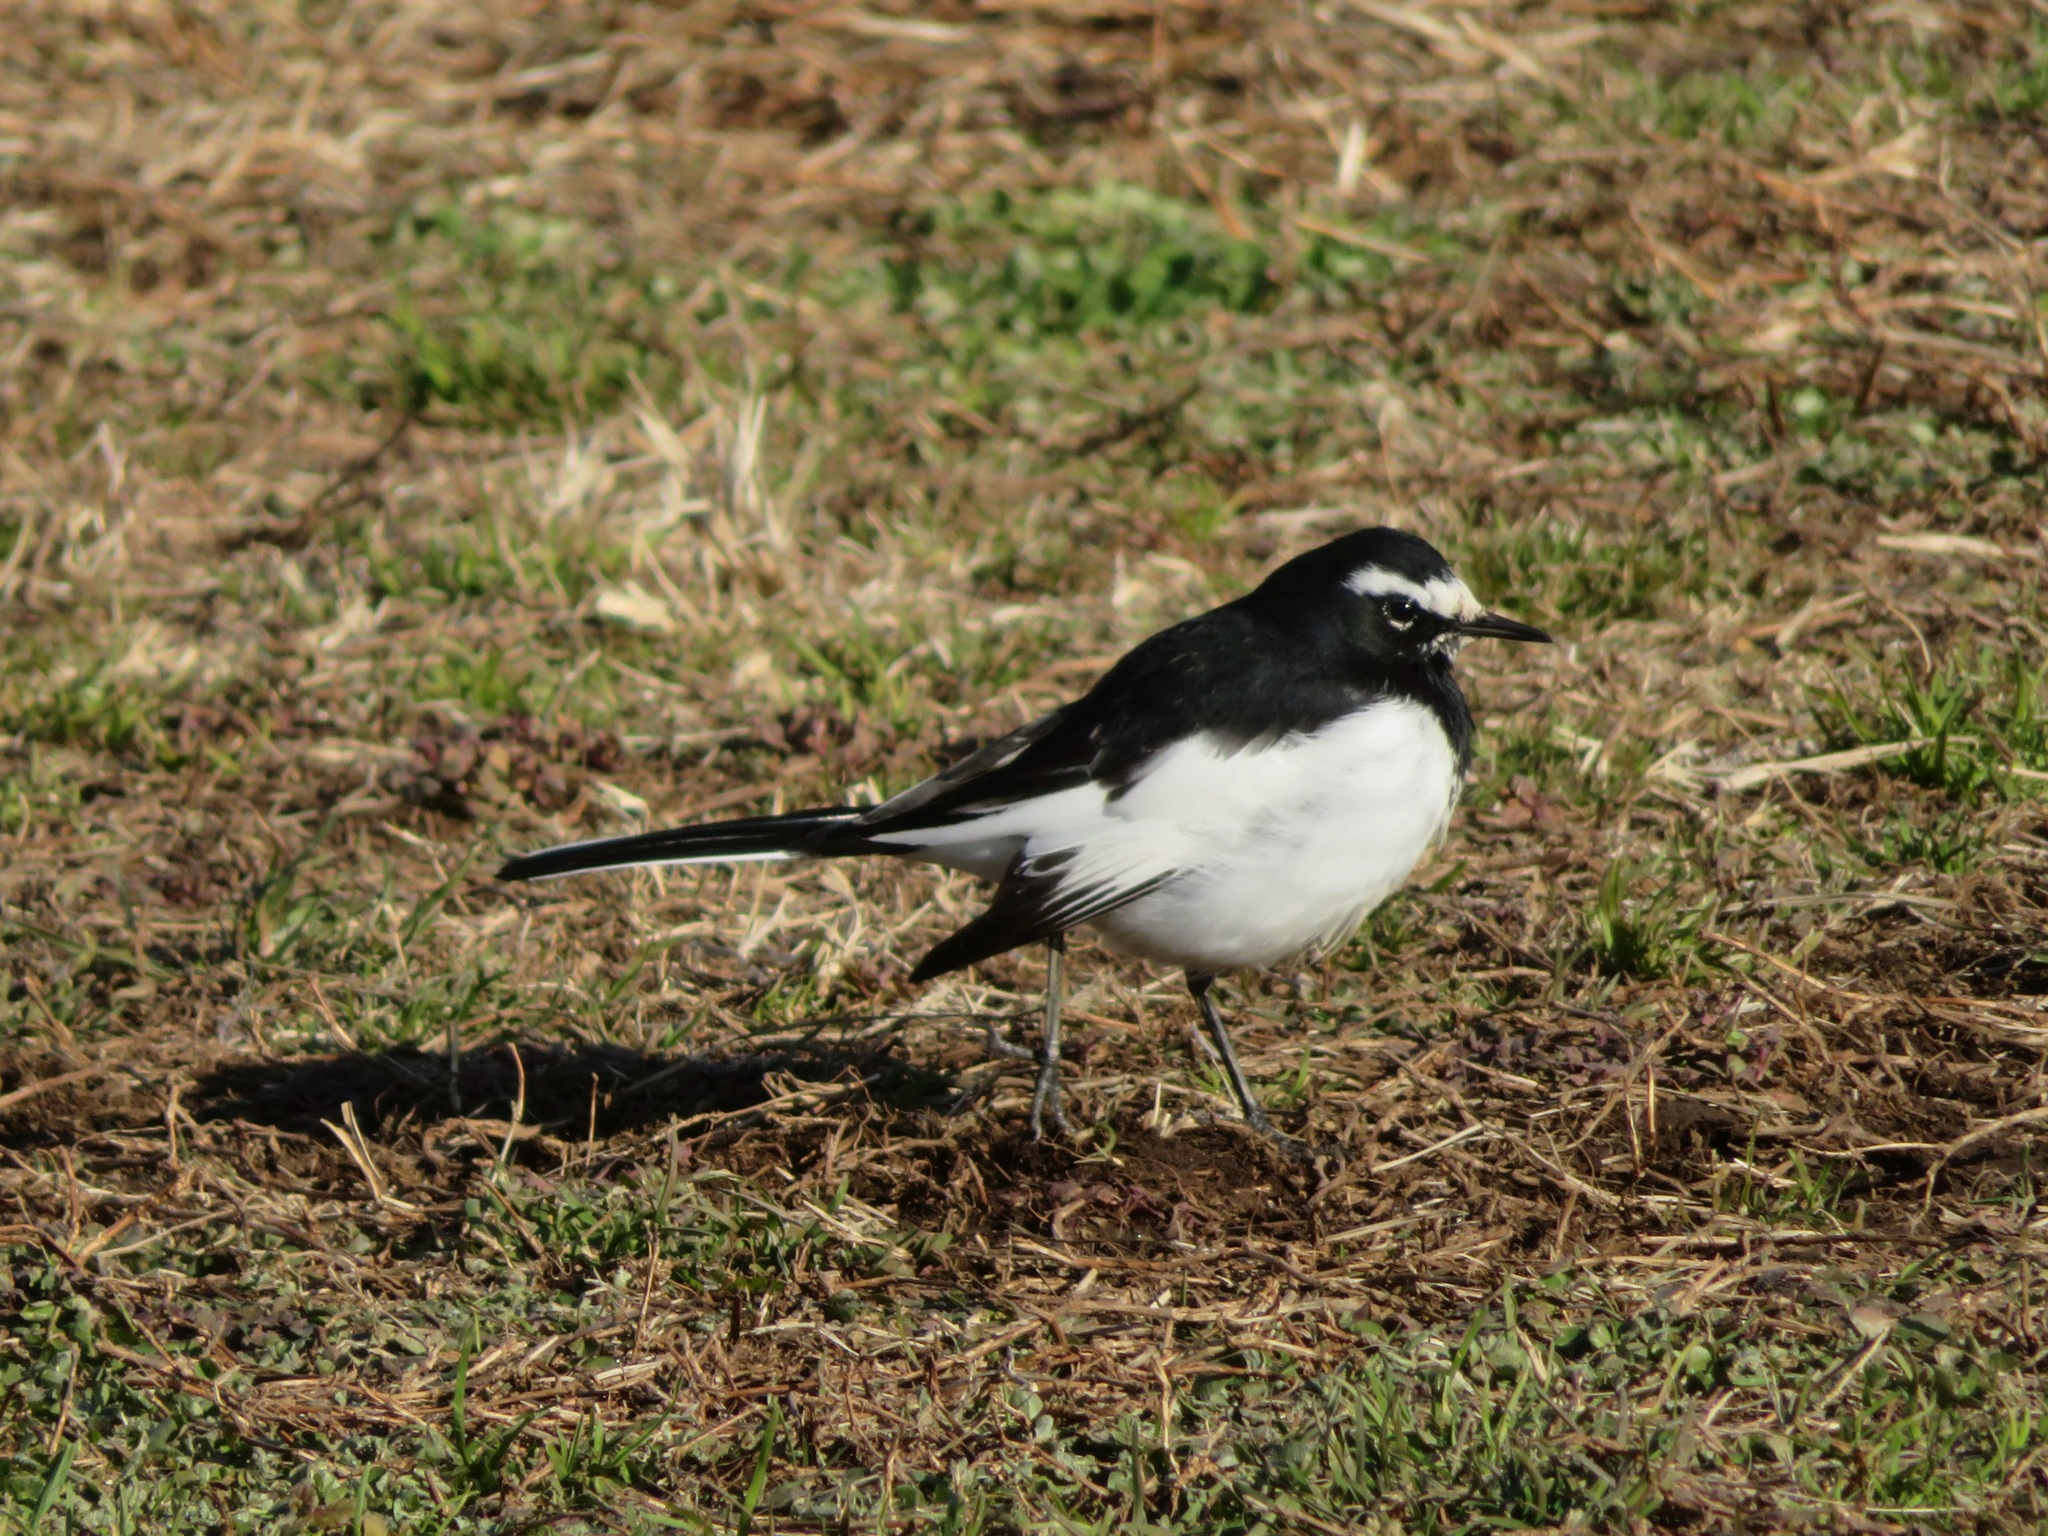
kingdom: Animalia
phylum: Chordata
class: Aves
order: Passeriformes
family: Motacillidae
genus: Motacilla
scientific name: Motacilla grandis
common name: Japanese wagtail
